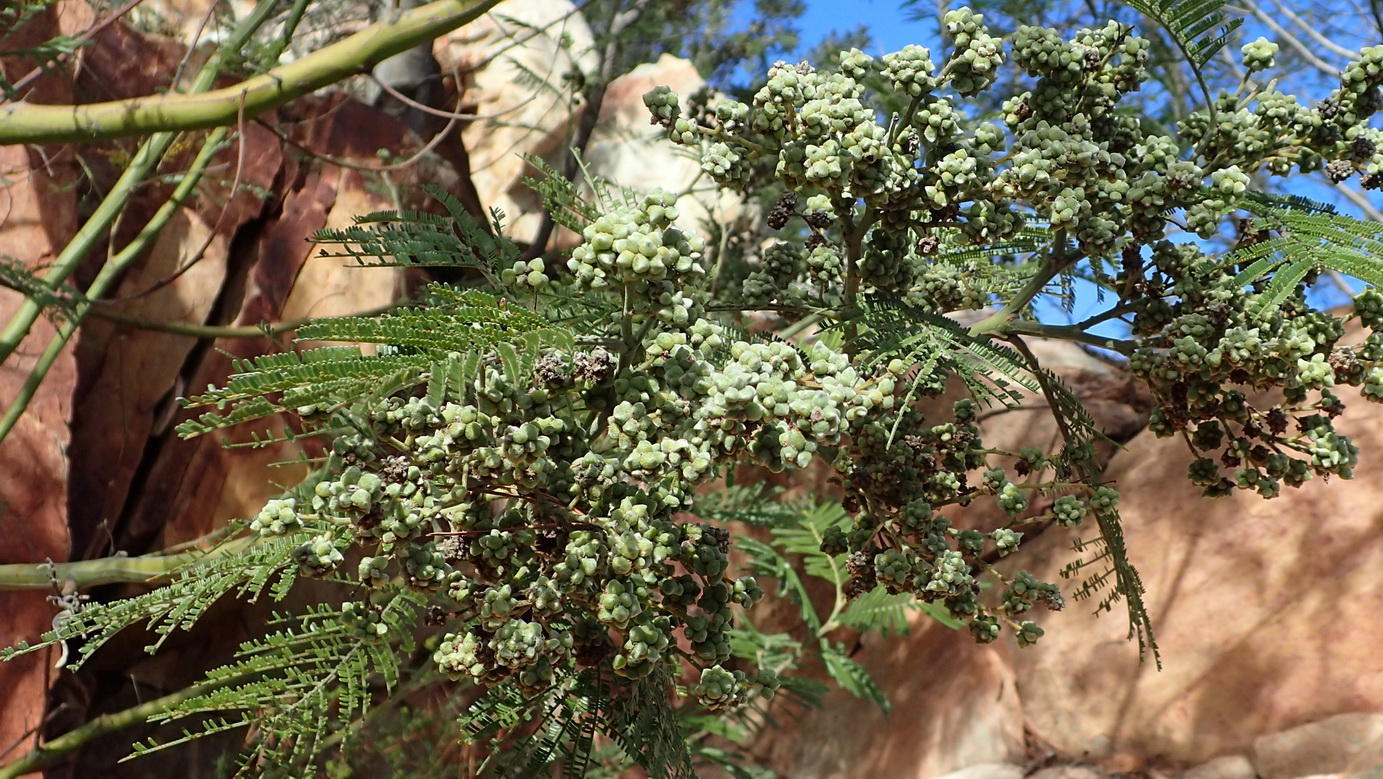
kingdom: Animalia
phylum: Arthropoda
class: Insecta
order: Diptera
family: Cecidomyiidae
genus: Dasineura
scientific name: Dasineura rubiformis
